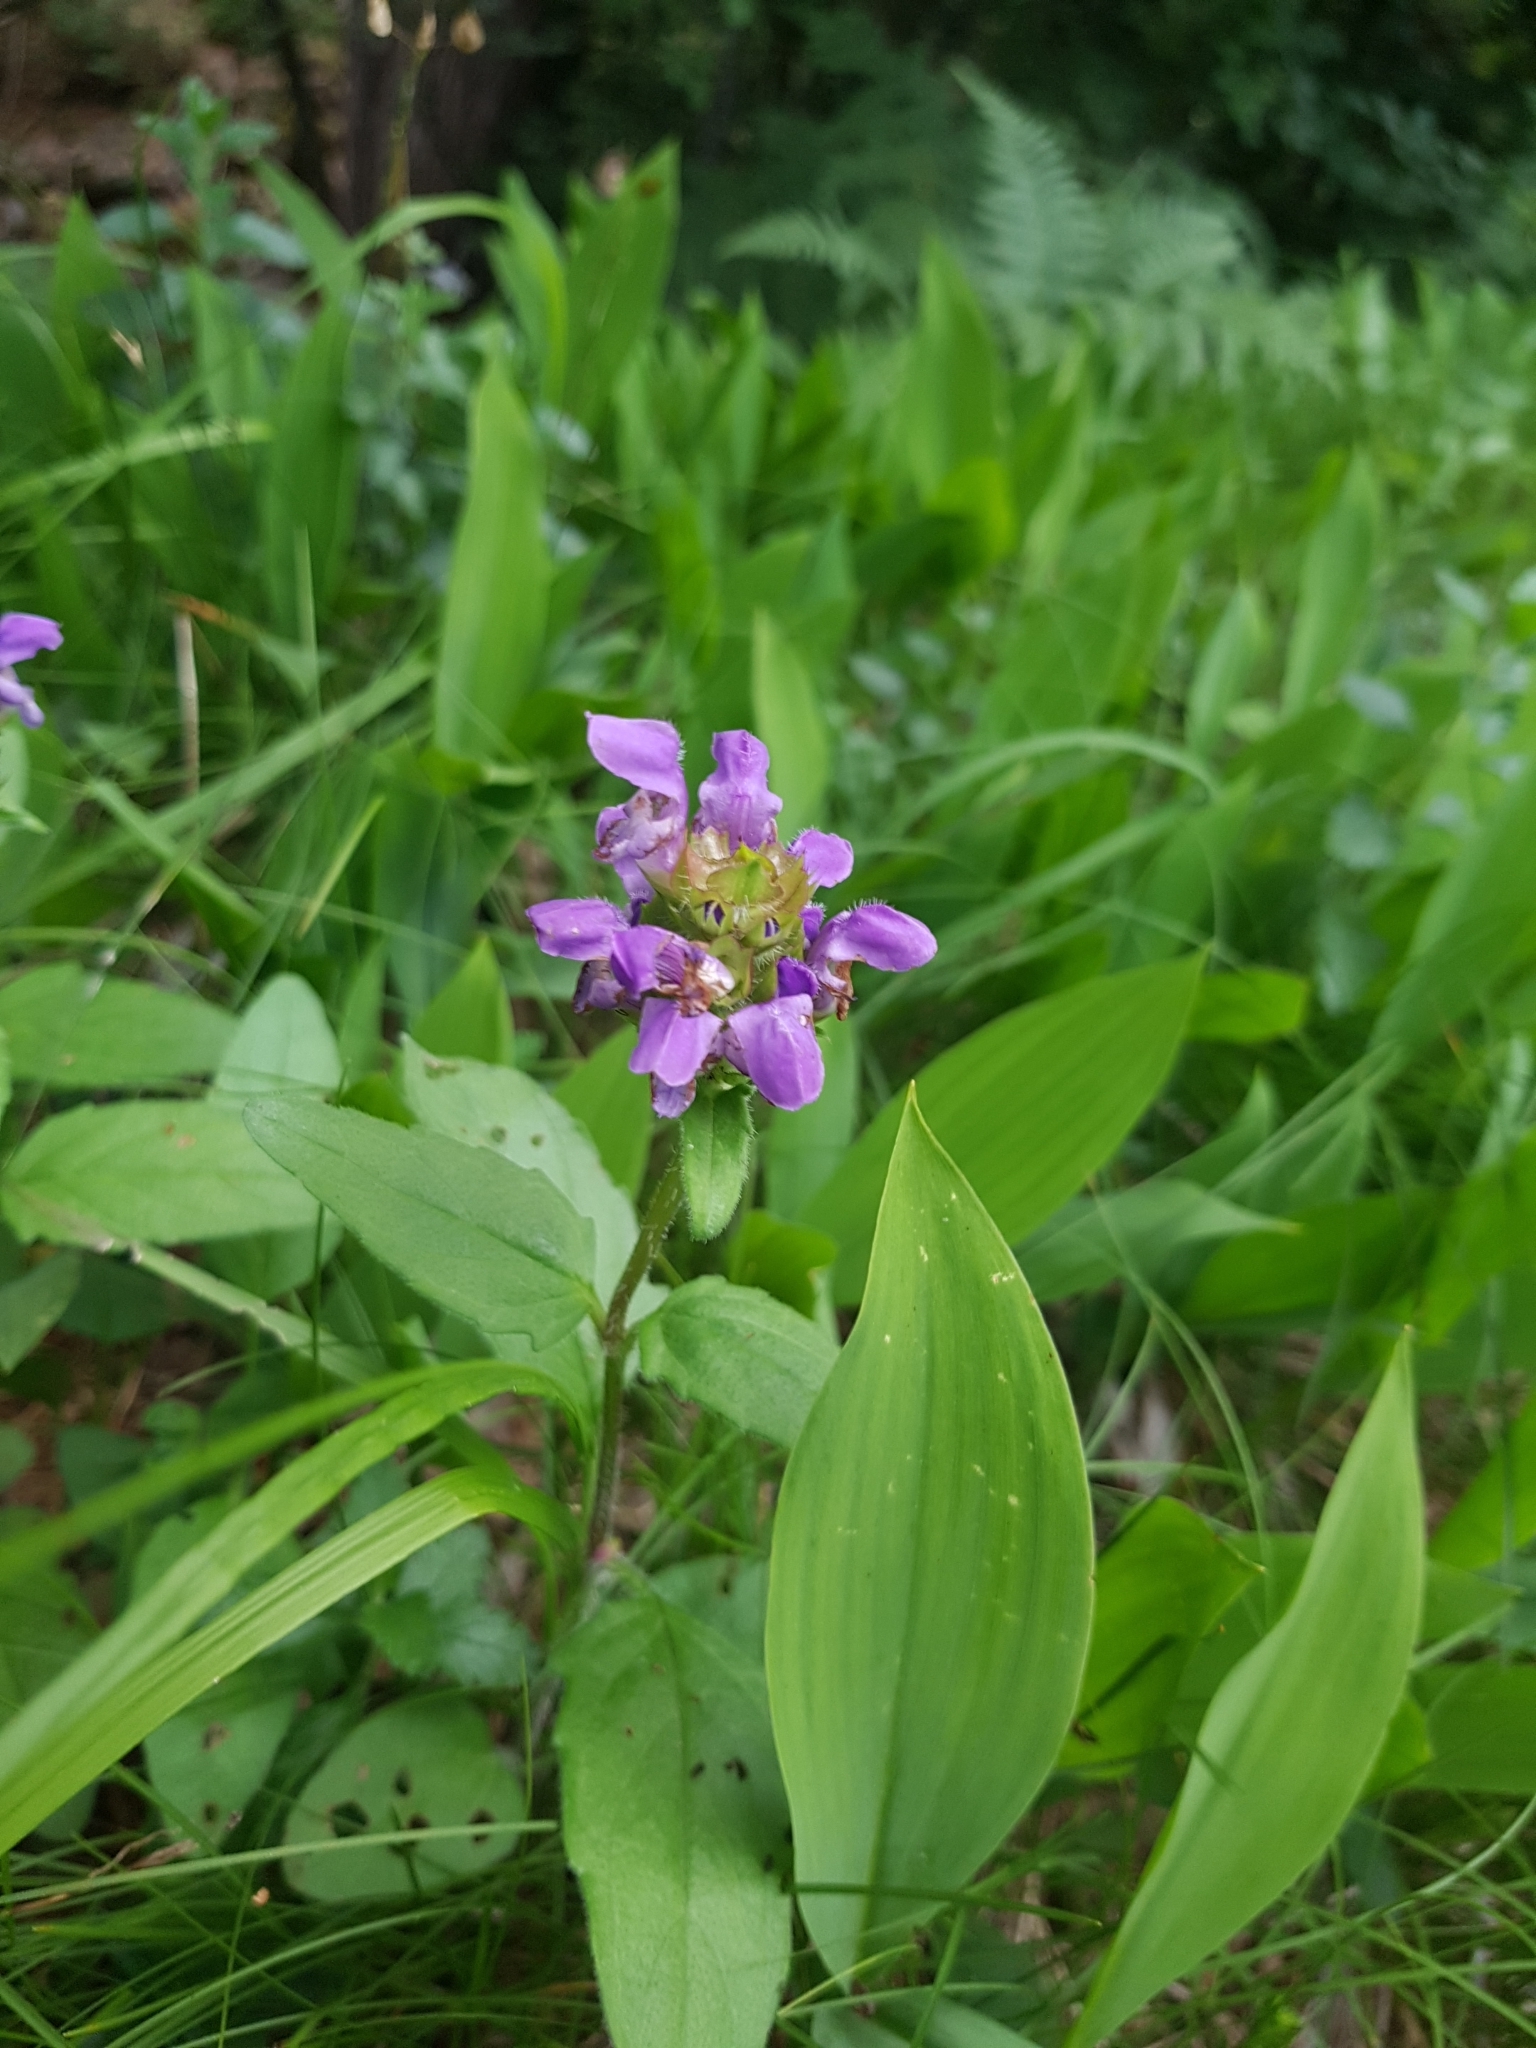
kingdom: Plantae
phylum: Tracheophyta
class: Magnoliopsida
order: Lamiales
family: Lamiaceae
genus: Prunella
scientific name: Prunella vulgaris
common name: Heal-all
